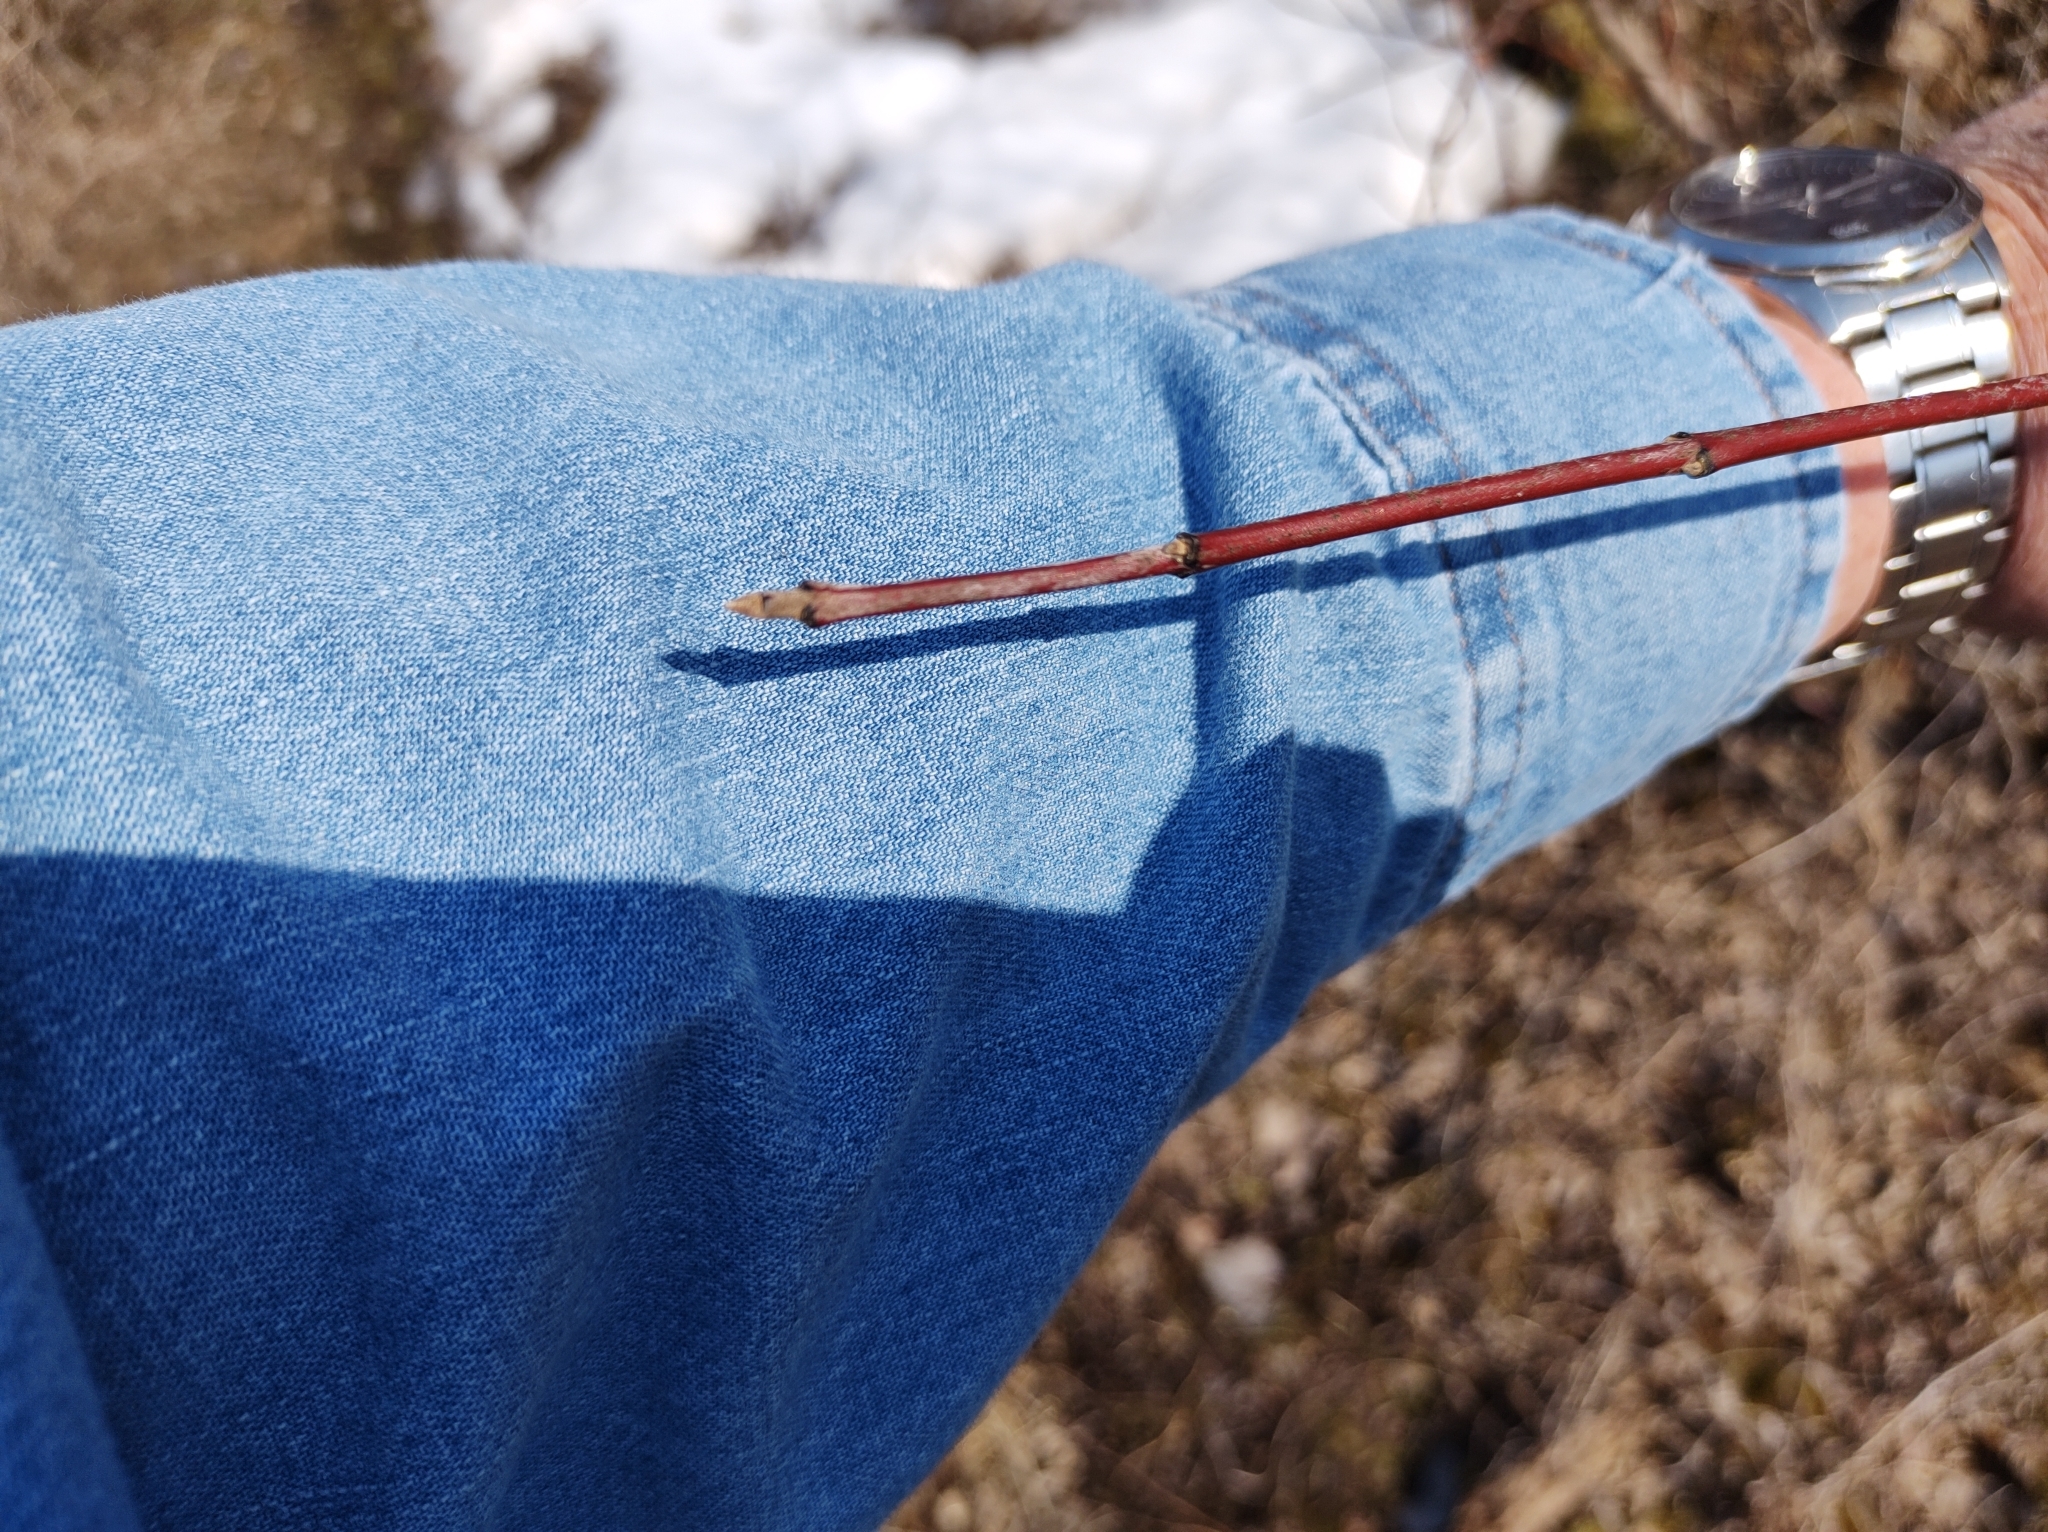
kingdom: Plantae
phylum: Tracheophyta
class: Magnoliopsida
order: Cornales
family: Cornaceae
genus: Cornus
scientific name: Cornus sericea
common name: Red-osier dogwood
